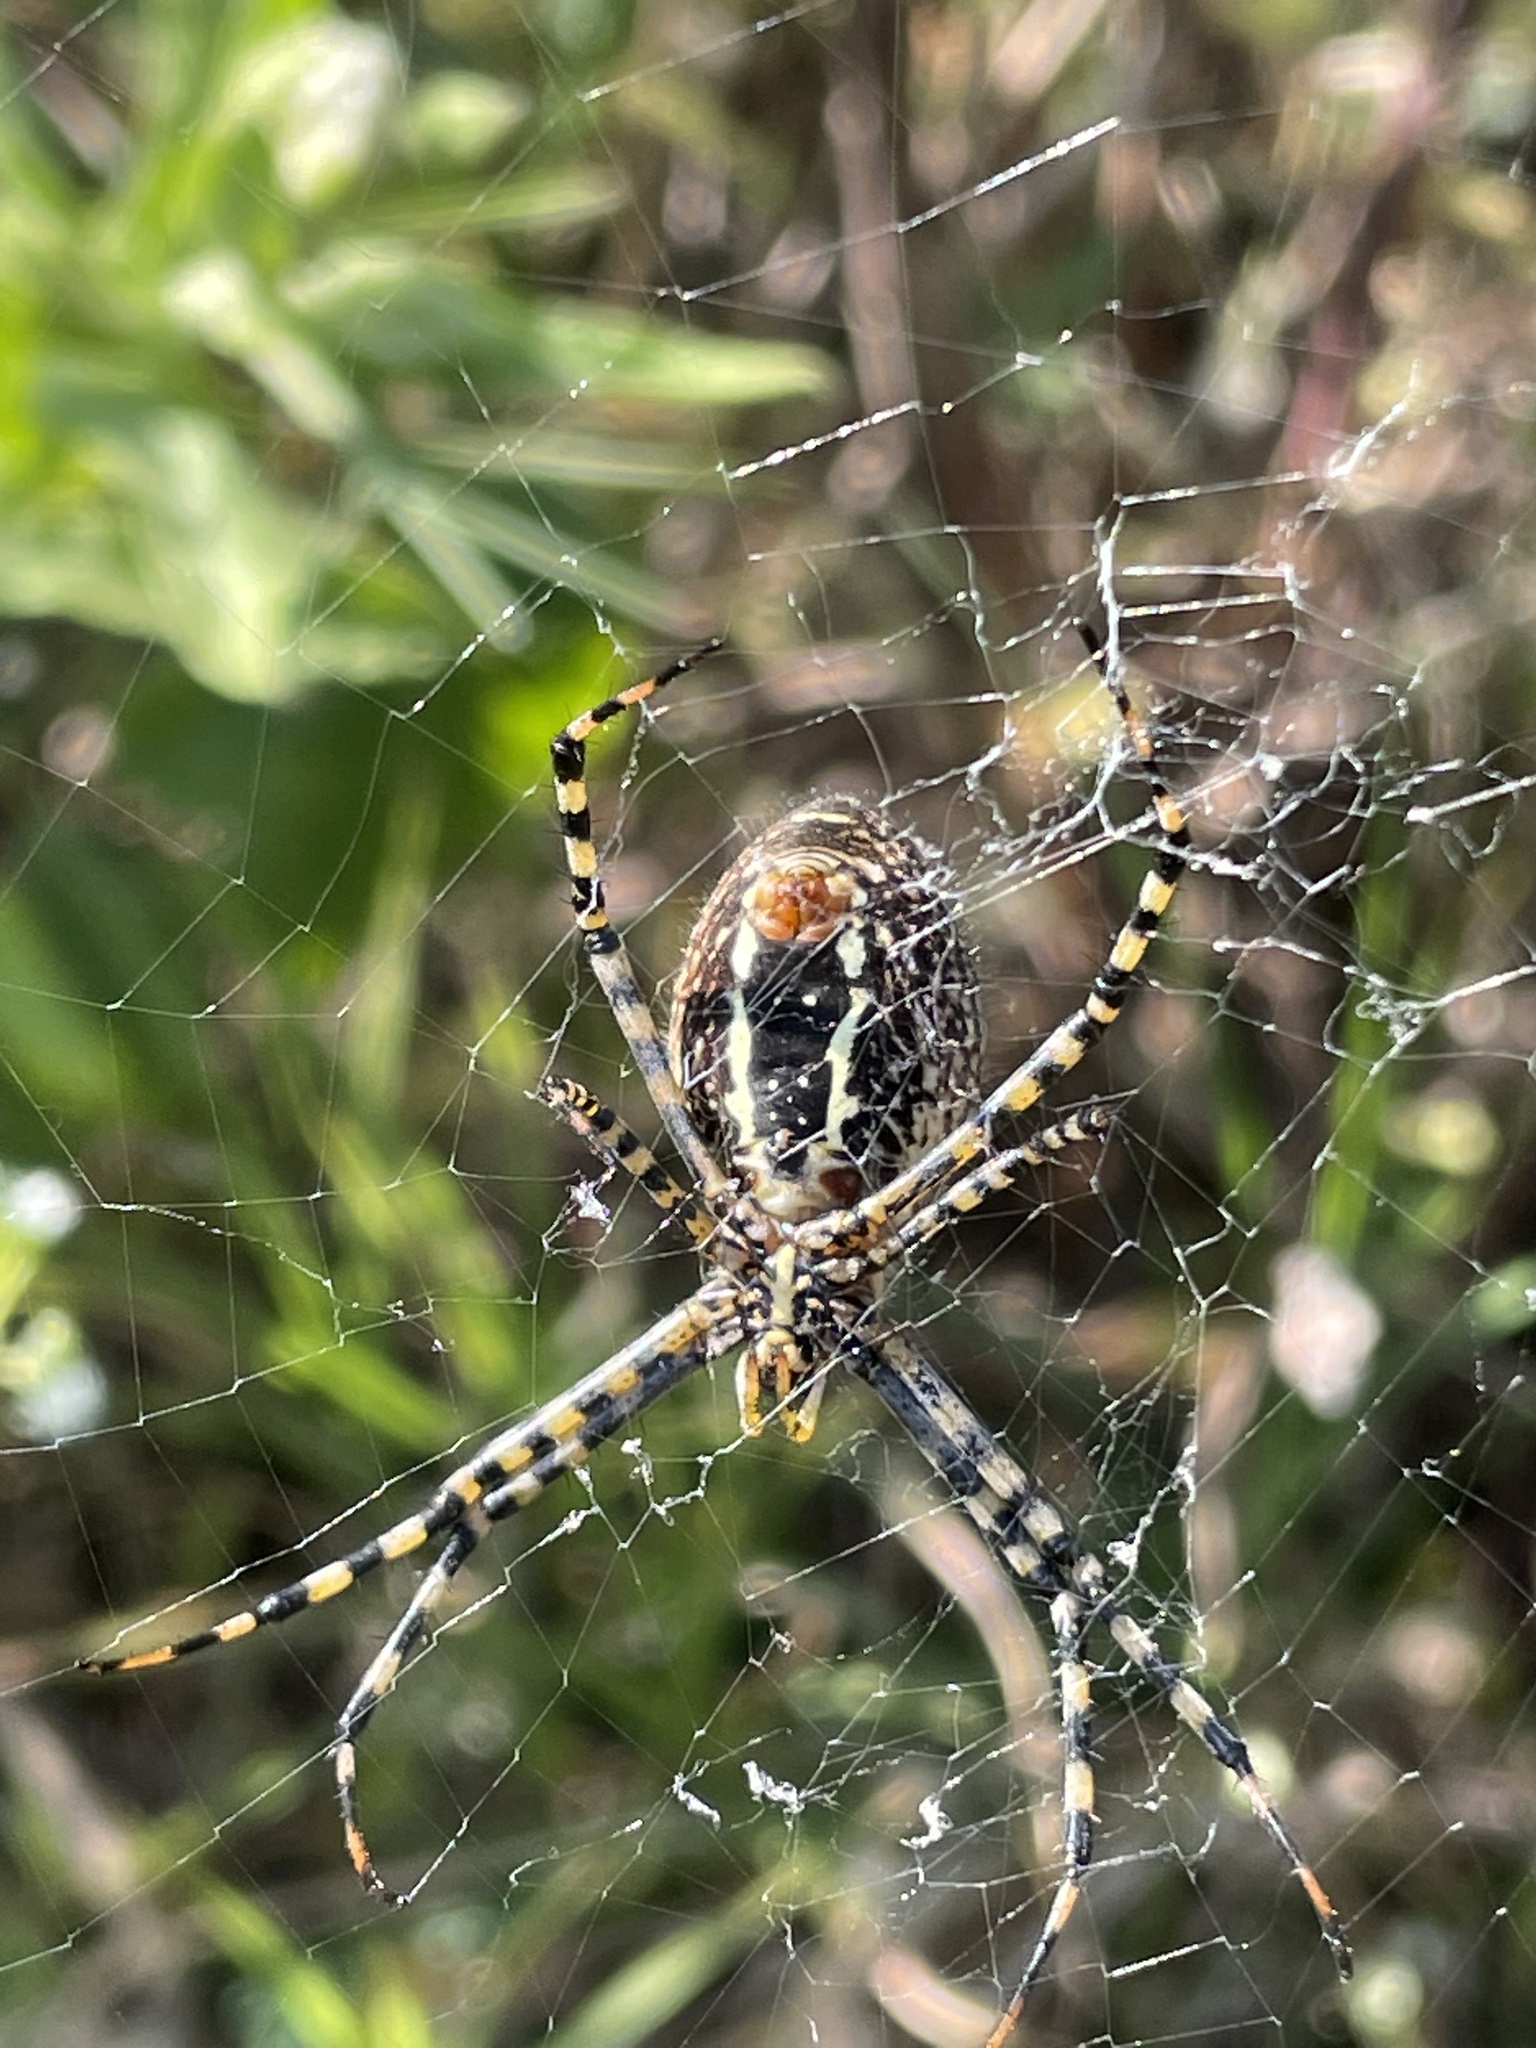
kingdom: Animalia
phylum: Arthropoda
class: Arachnida
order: Araneae
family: Araneidae
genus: Argiope
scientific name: Argiope trifasciata
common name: Banded garden spider
